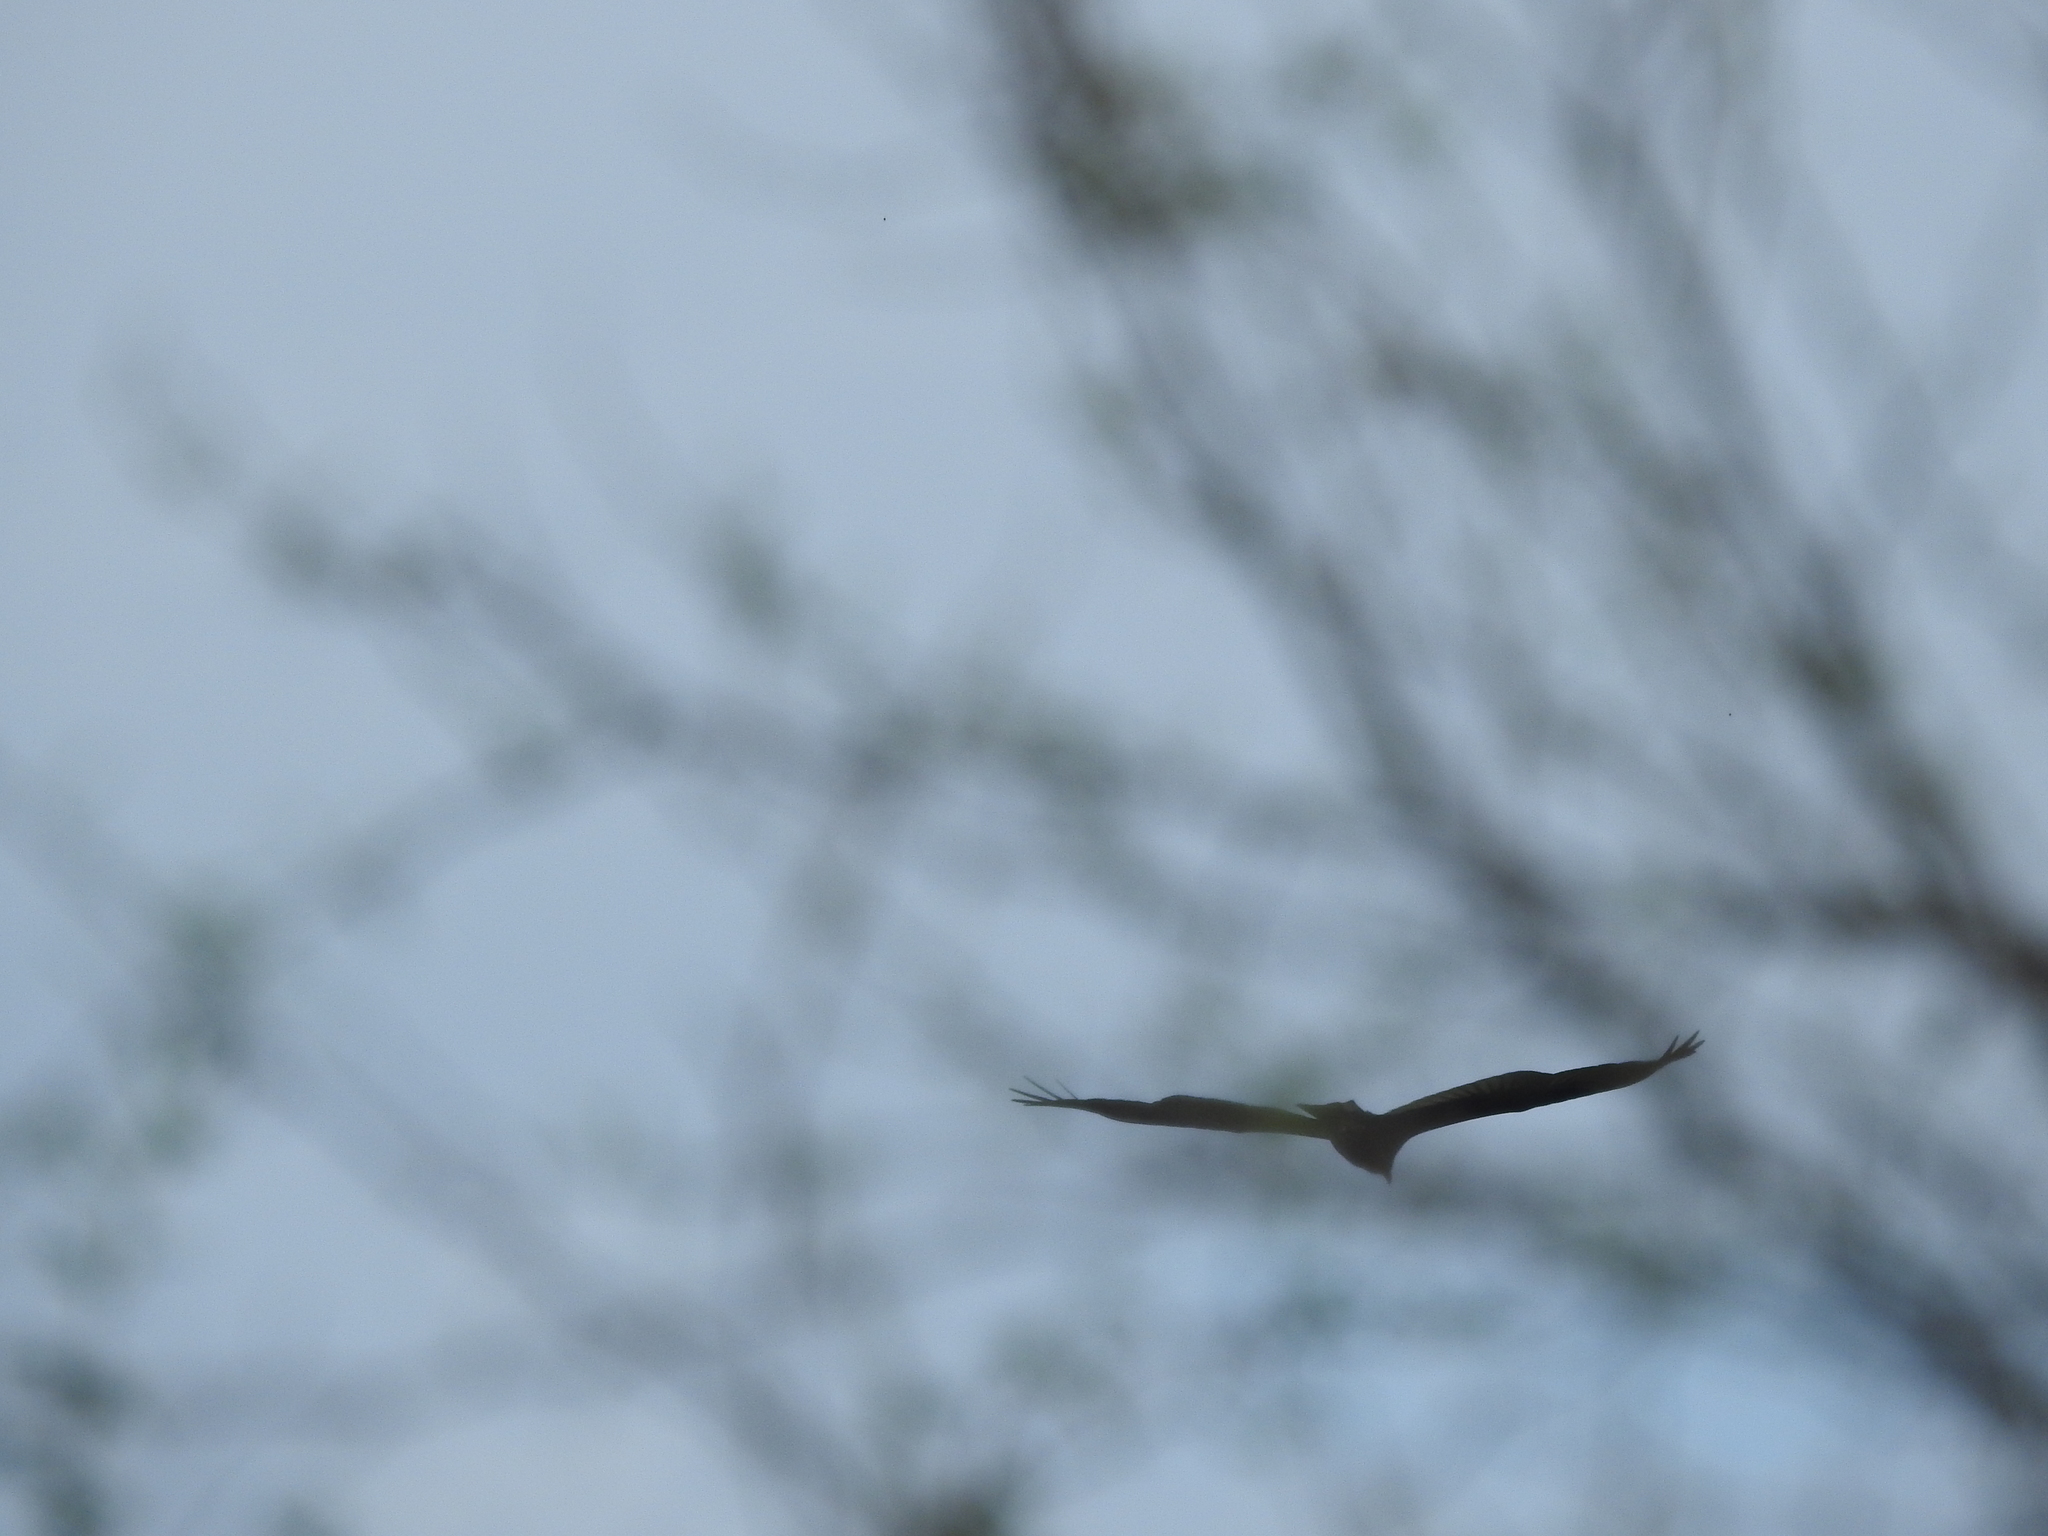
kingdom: Animalia
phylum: Chordata
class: Aves
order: Accipitriformes
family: Cathartidae
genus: Cathartes
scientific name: Cathartes aura
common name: Turkey vulture
